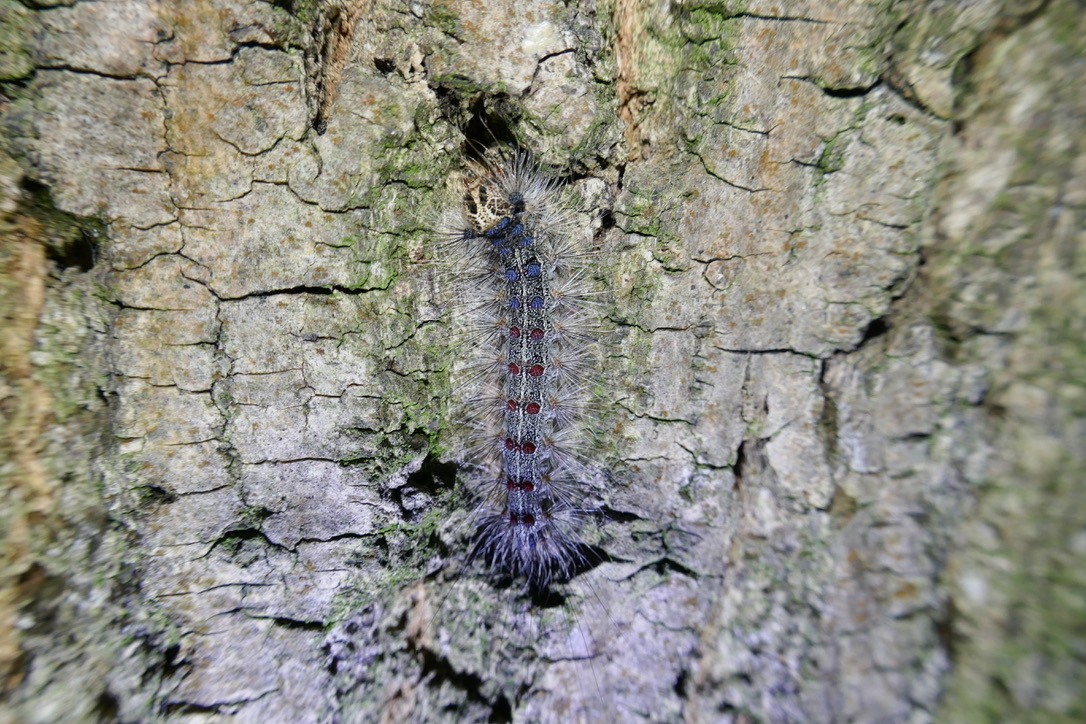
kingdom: Animalia
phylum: Arthropoda
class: Insecta
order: Lepidoptera
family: Erebidae
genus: Lymantria
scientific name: Lymantria dispar
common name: Gypsy moth
